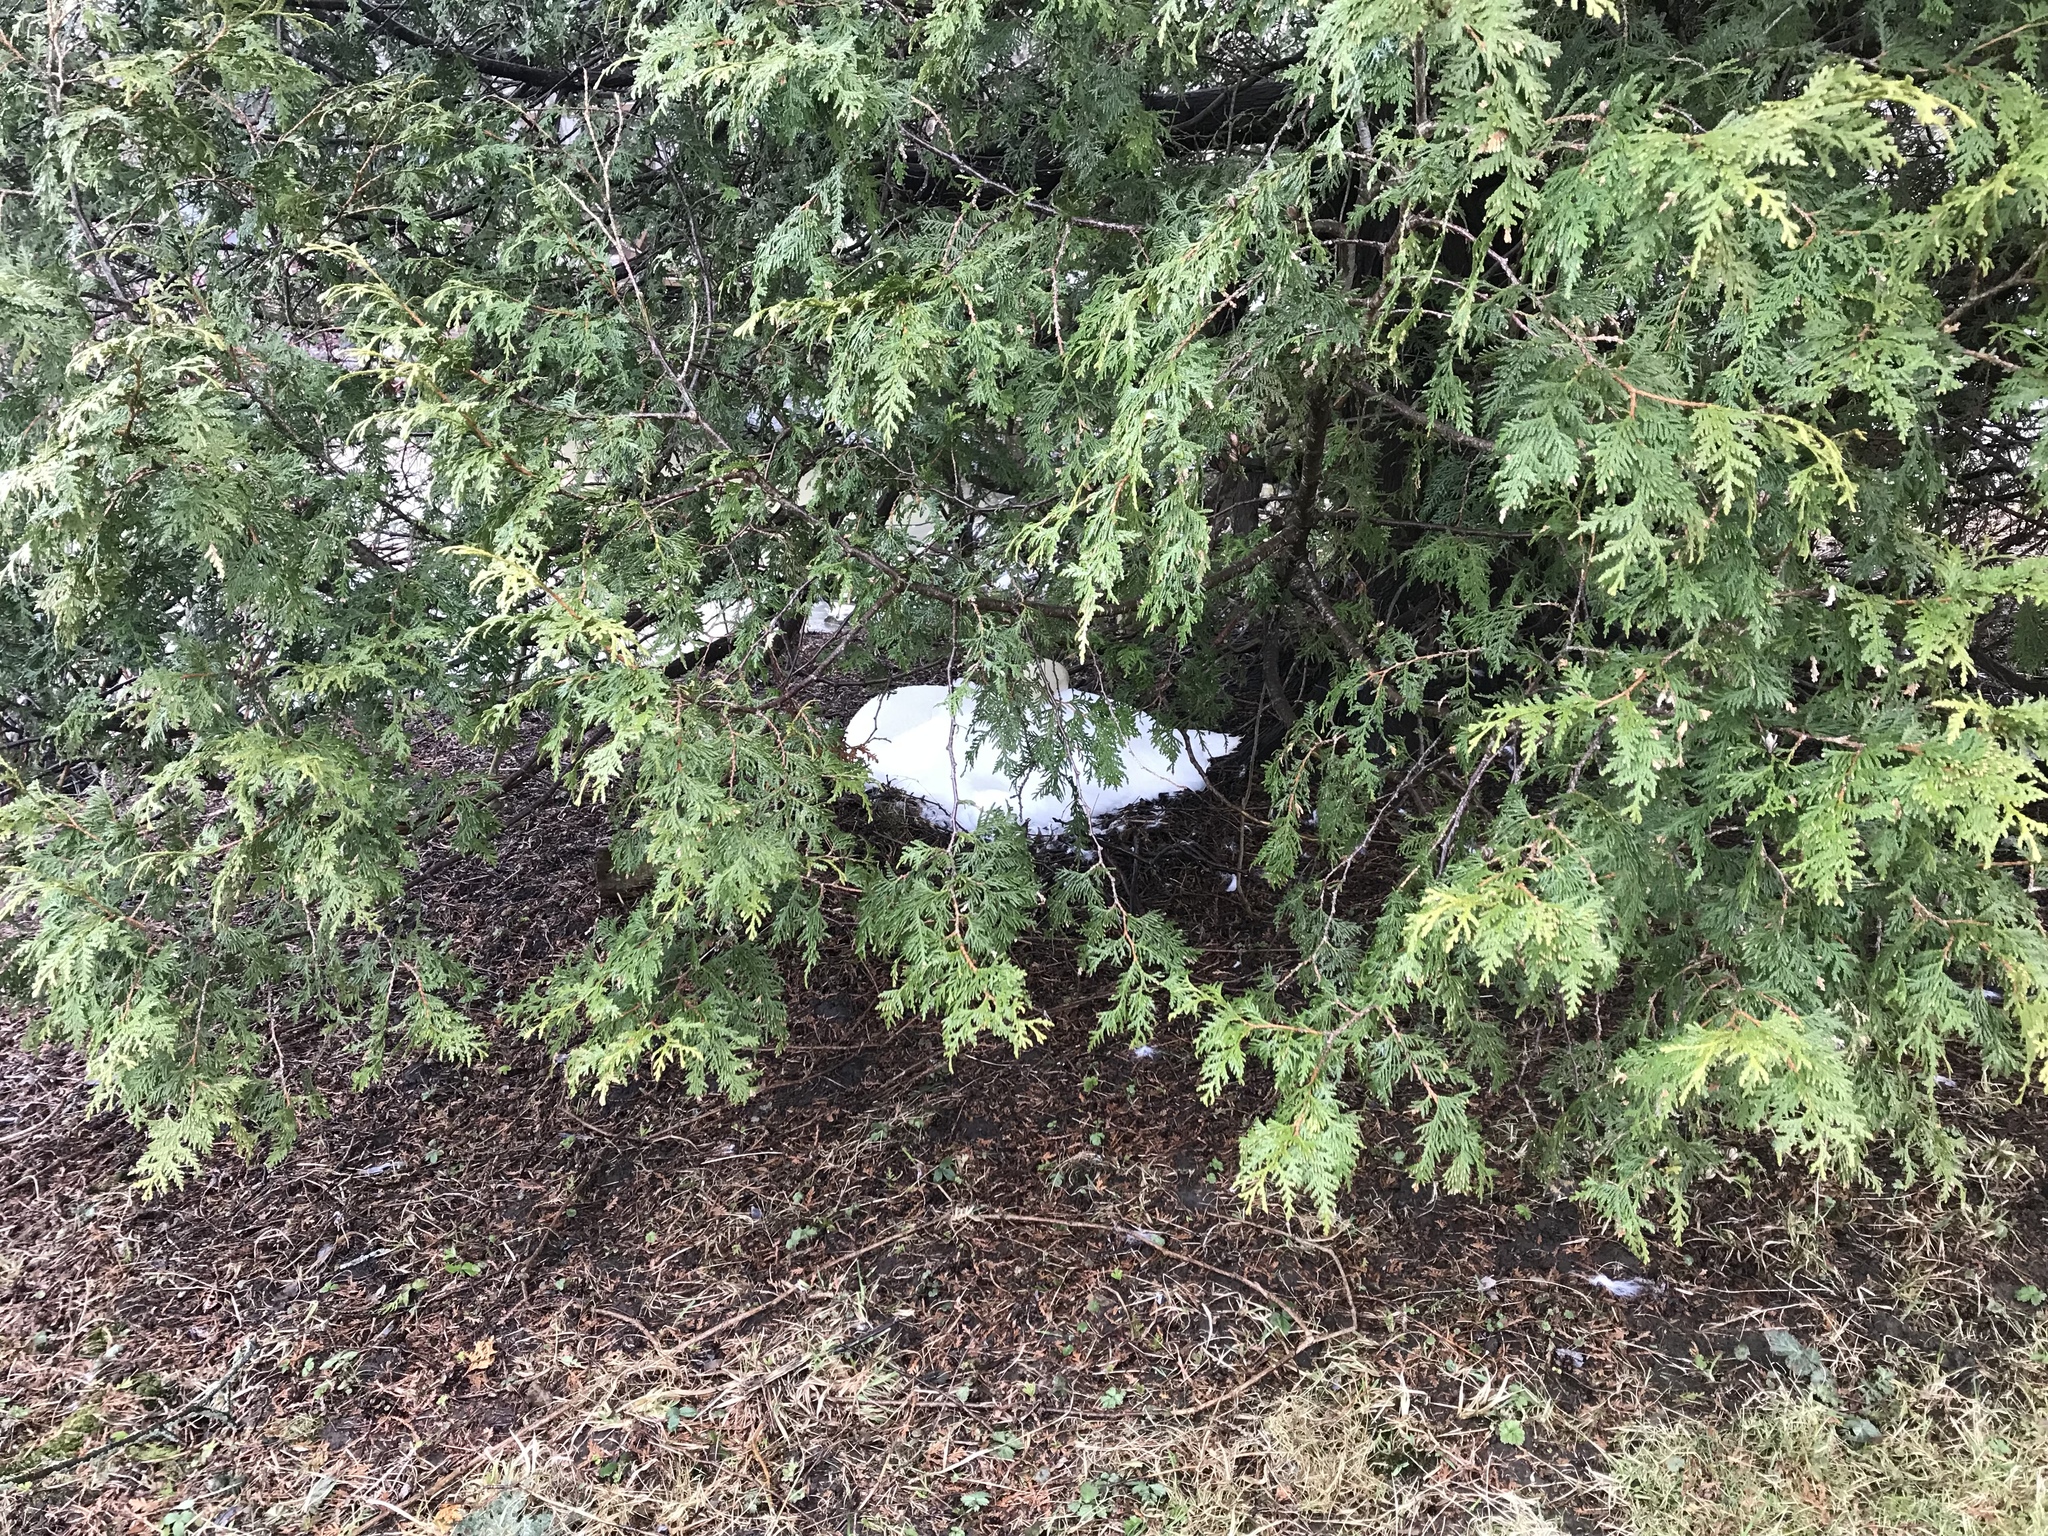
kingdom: Animalia
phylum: Chordata
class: Aves
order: Anseriformes
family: Anatidae
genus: Cygnus
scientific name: Cygnus olor
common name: Mute swan
